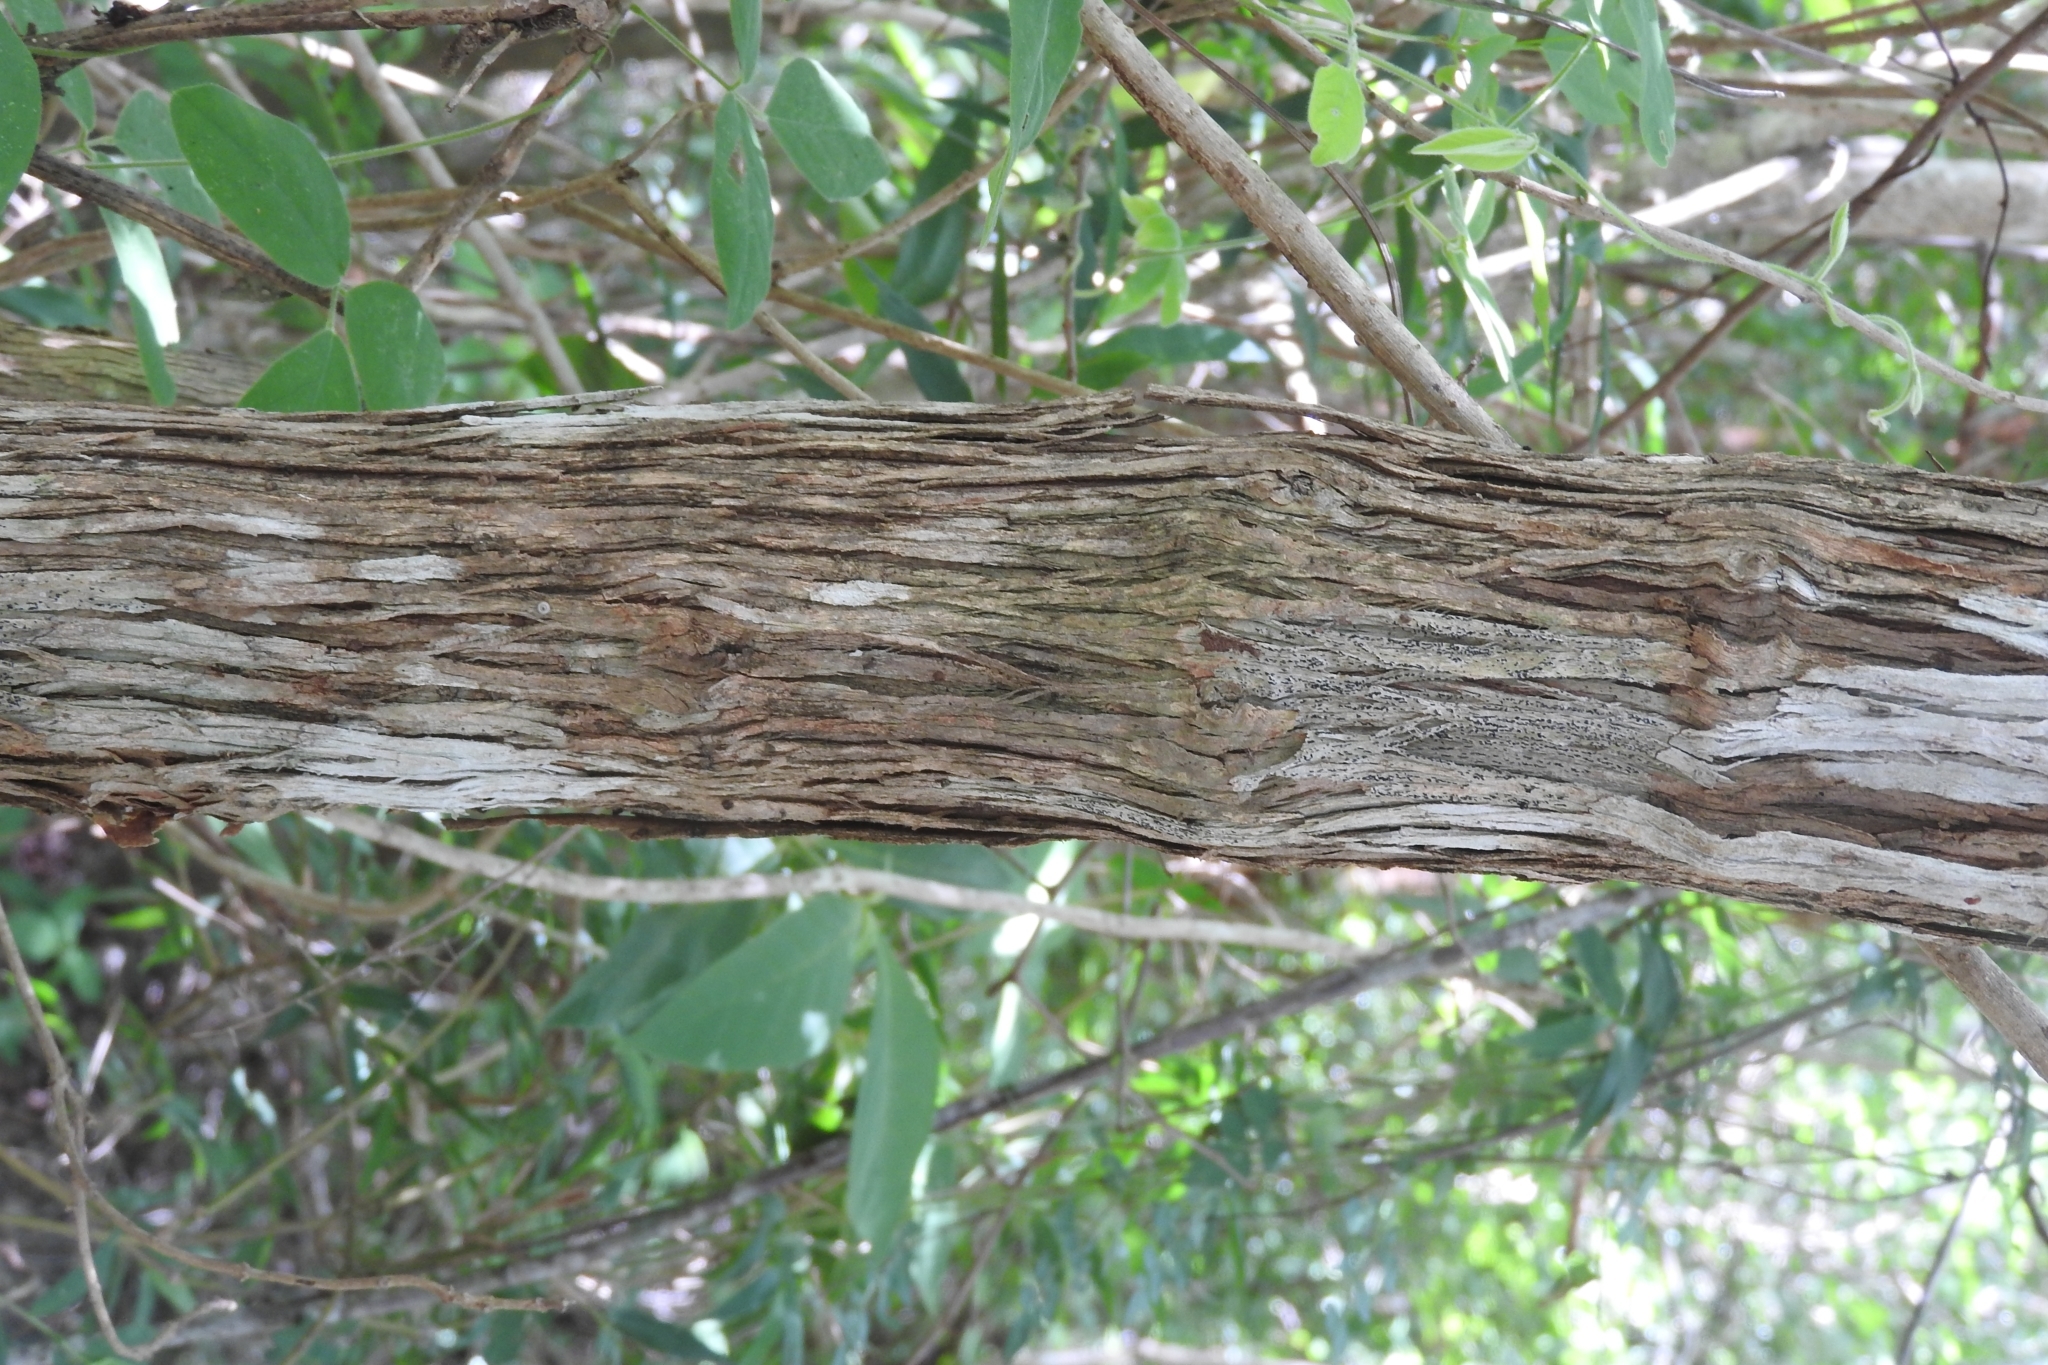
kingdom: Plantae
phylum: Tracheophyta
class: Magnoliopsida
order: Caryophyllales
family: Polygonaceae
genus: Gymnopodium
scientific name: Gymnopodium floribundum
